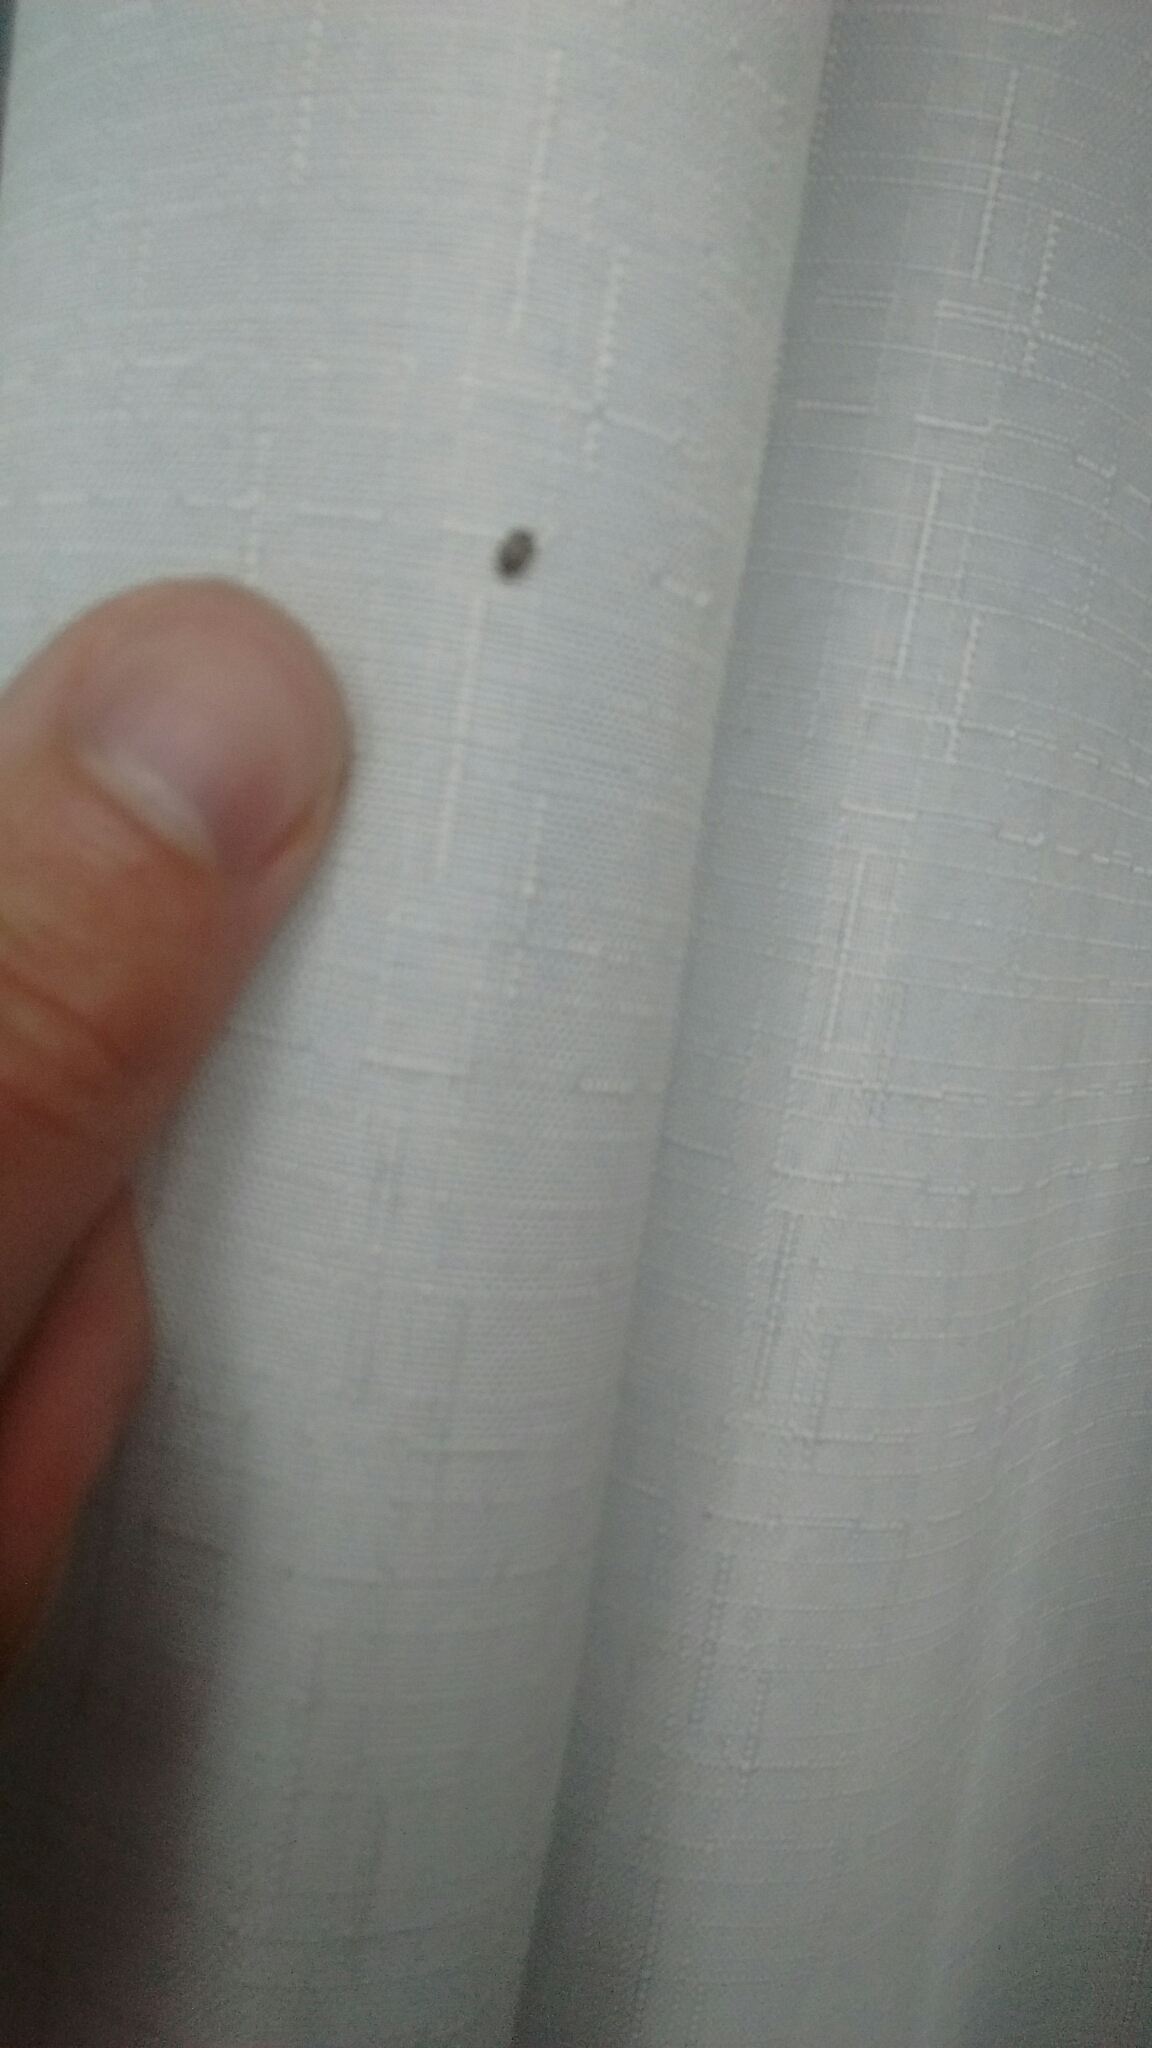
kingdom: Animalia
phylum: Arthropoda
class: Insecta
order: Coleoptera
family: Dermestidae
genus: Anthrenus
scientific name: Anthrenus verbasci
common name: Varied carpet beetle
